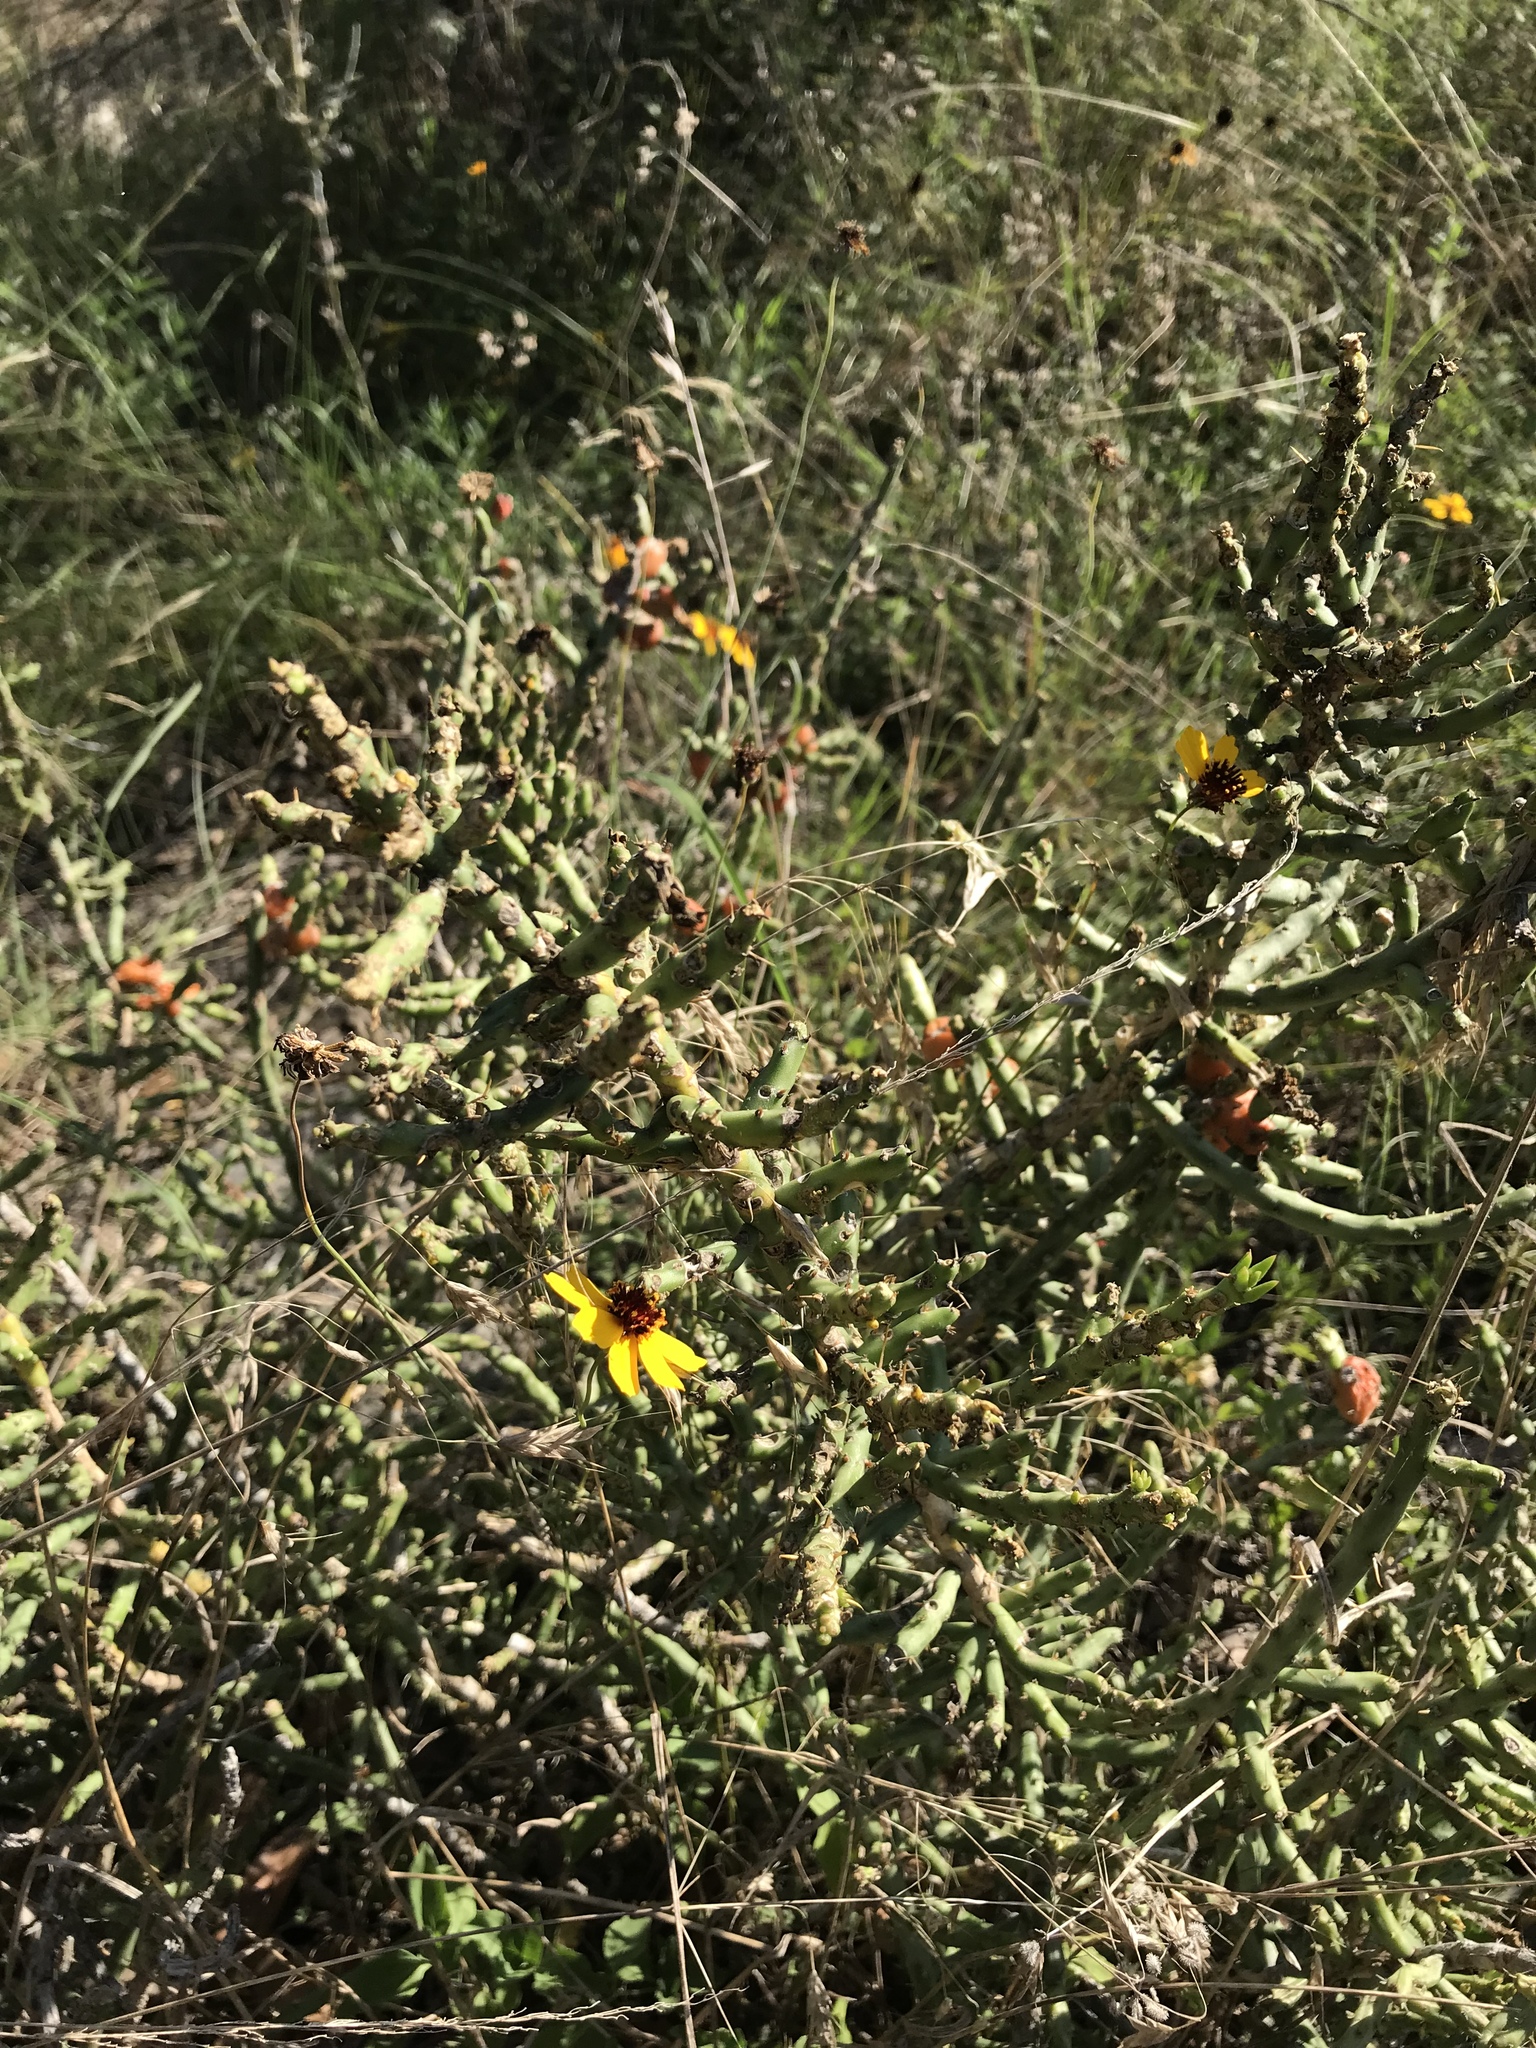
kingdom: Plantae
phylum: Tracheophyta
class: Magnoliopsida
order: Caryophyllales
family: Cactaceae
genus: Cylindropuntia
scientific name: Cylindropuntia leptocaulis
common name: Christmas cactus
